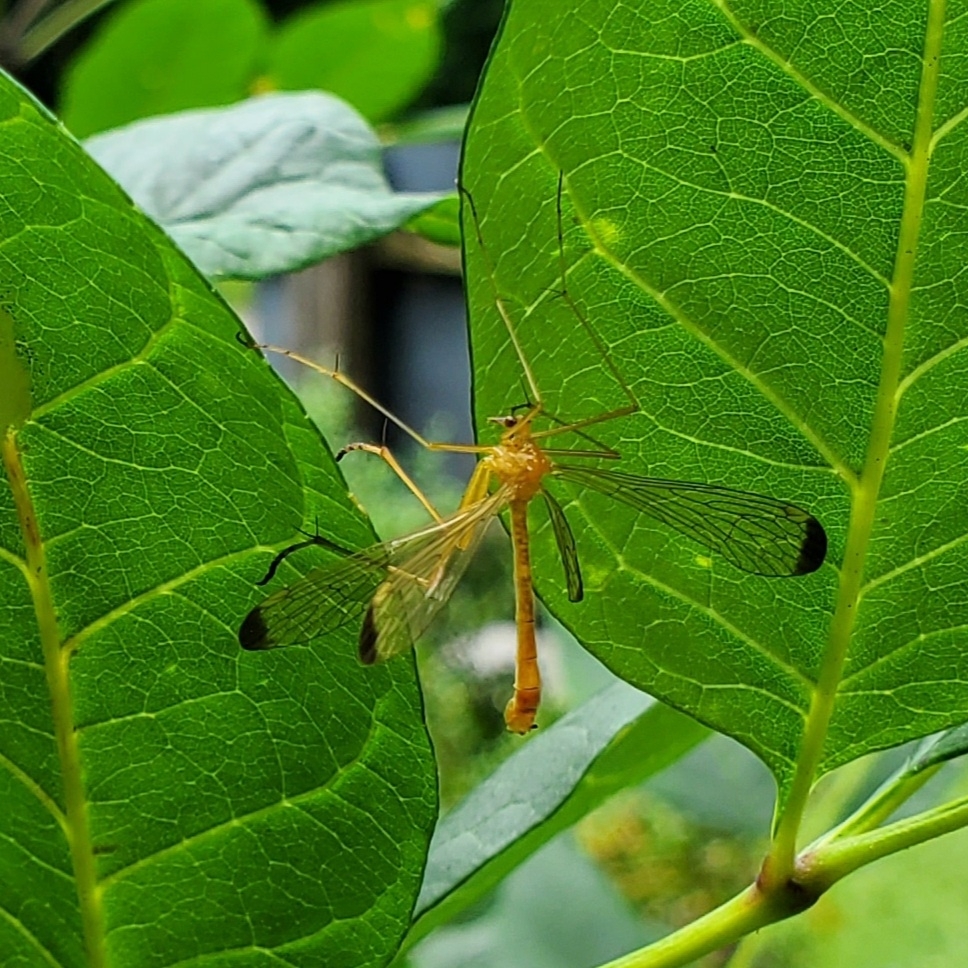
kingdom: Animalia
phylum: Arthropoda
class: Insecta
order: Mecoptera
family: Bittacidae
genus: Hylobittacus
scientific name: Hylobittacus apicalis
